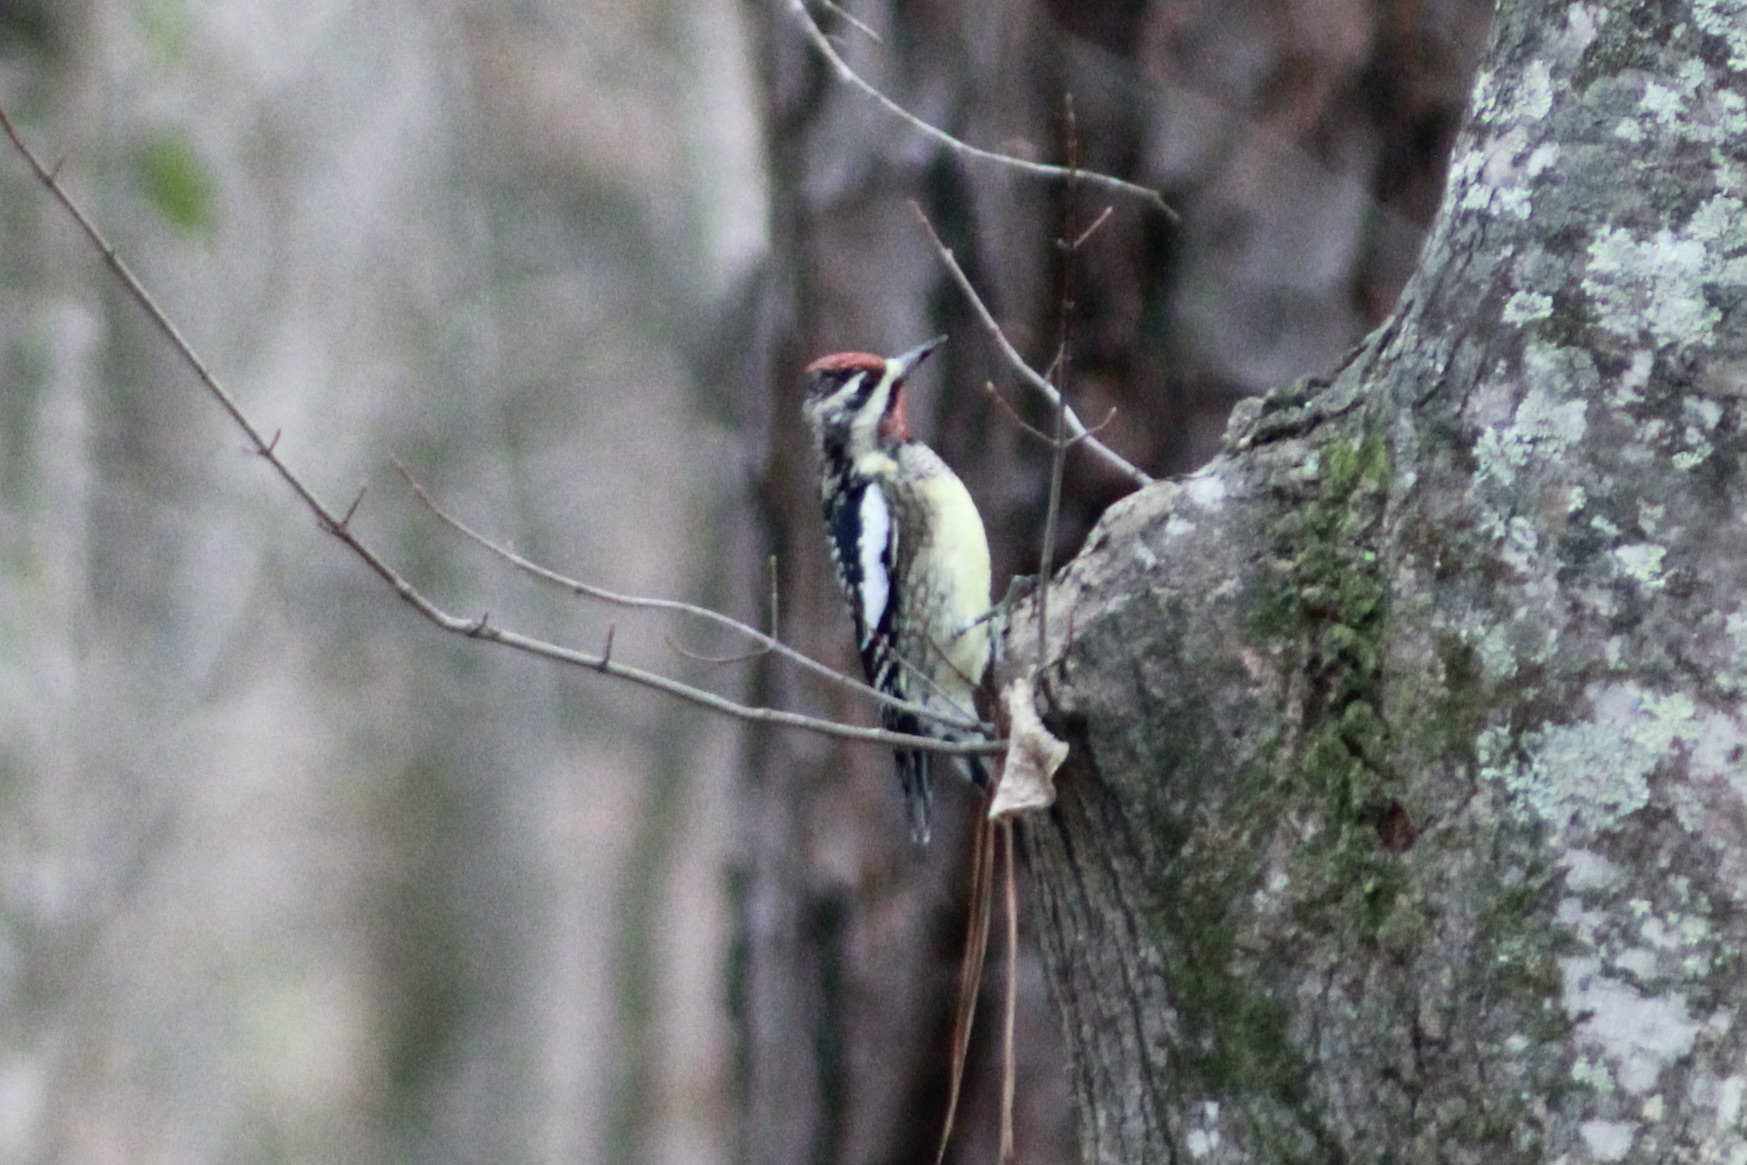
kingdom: Animalia
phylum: Chordata
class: Aves
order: Piciformes
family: Picidae
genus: Sphyrapicus
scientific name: Sphyrapicus varius
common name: Yellow-bellied sapsucker
